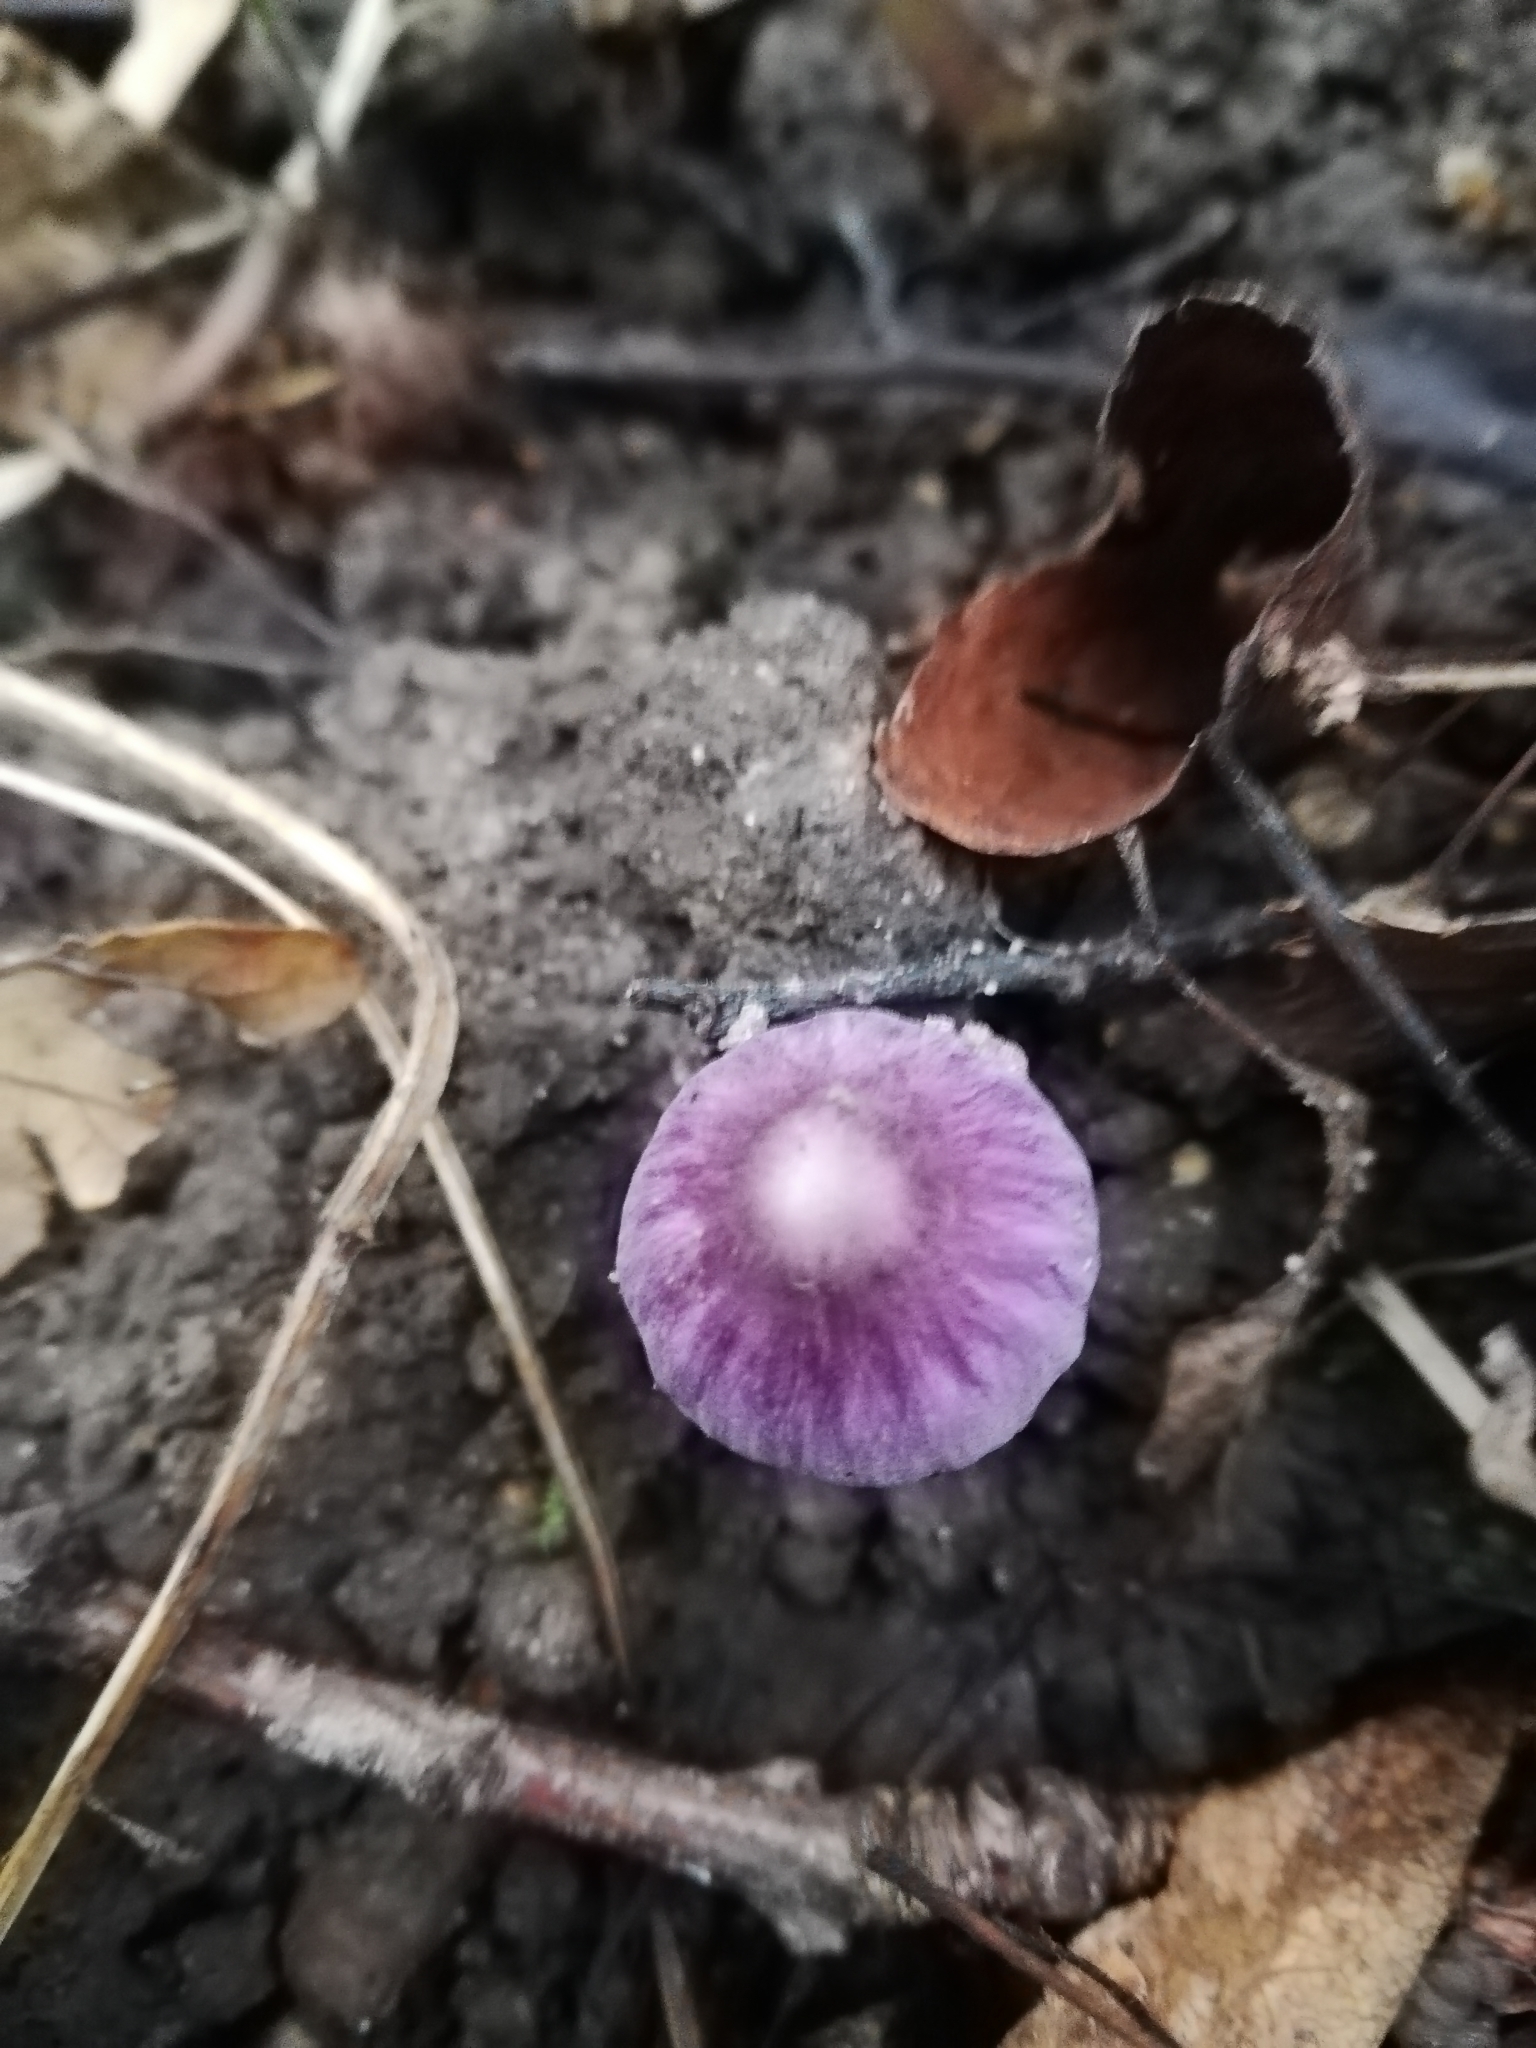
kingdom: Fungi
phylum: Basidiomycota
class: Agaricomycetes
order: Agaricales
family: Inocybaceae
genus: Inocybe
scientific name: Inocybe geophylla
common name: White fibrecap
